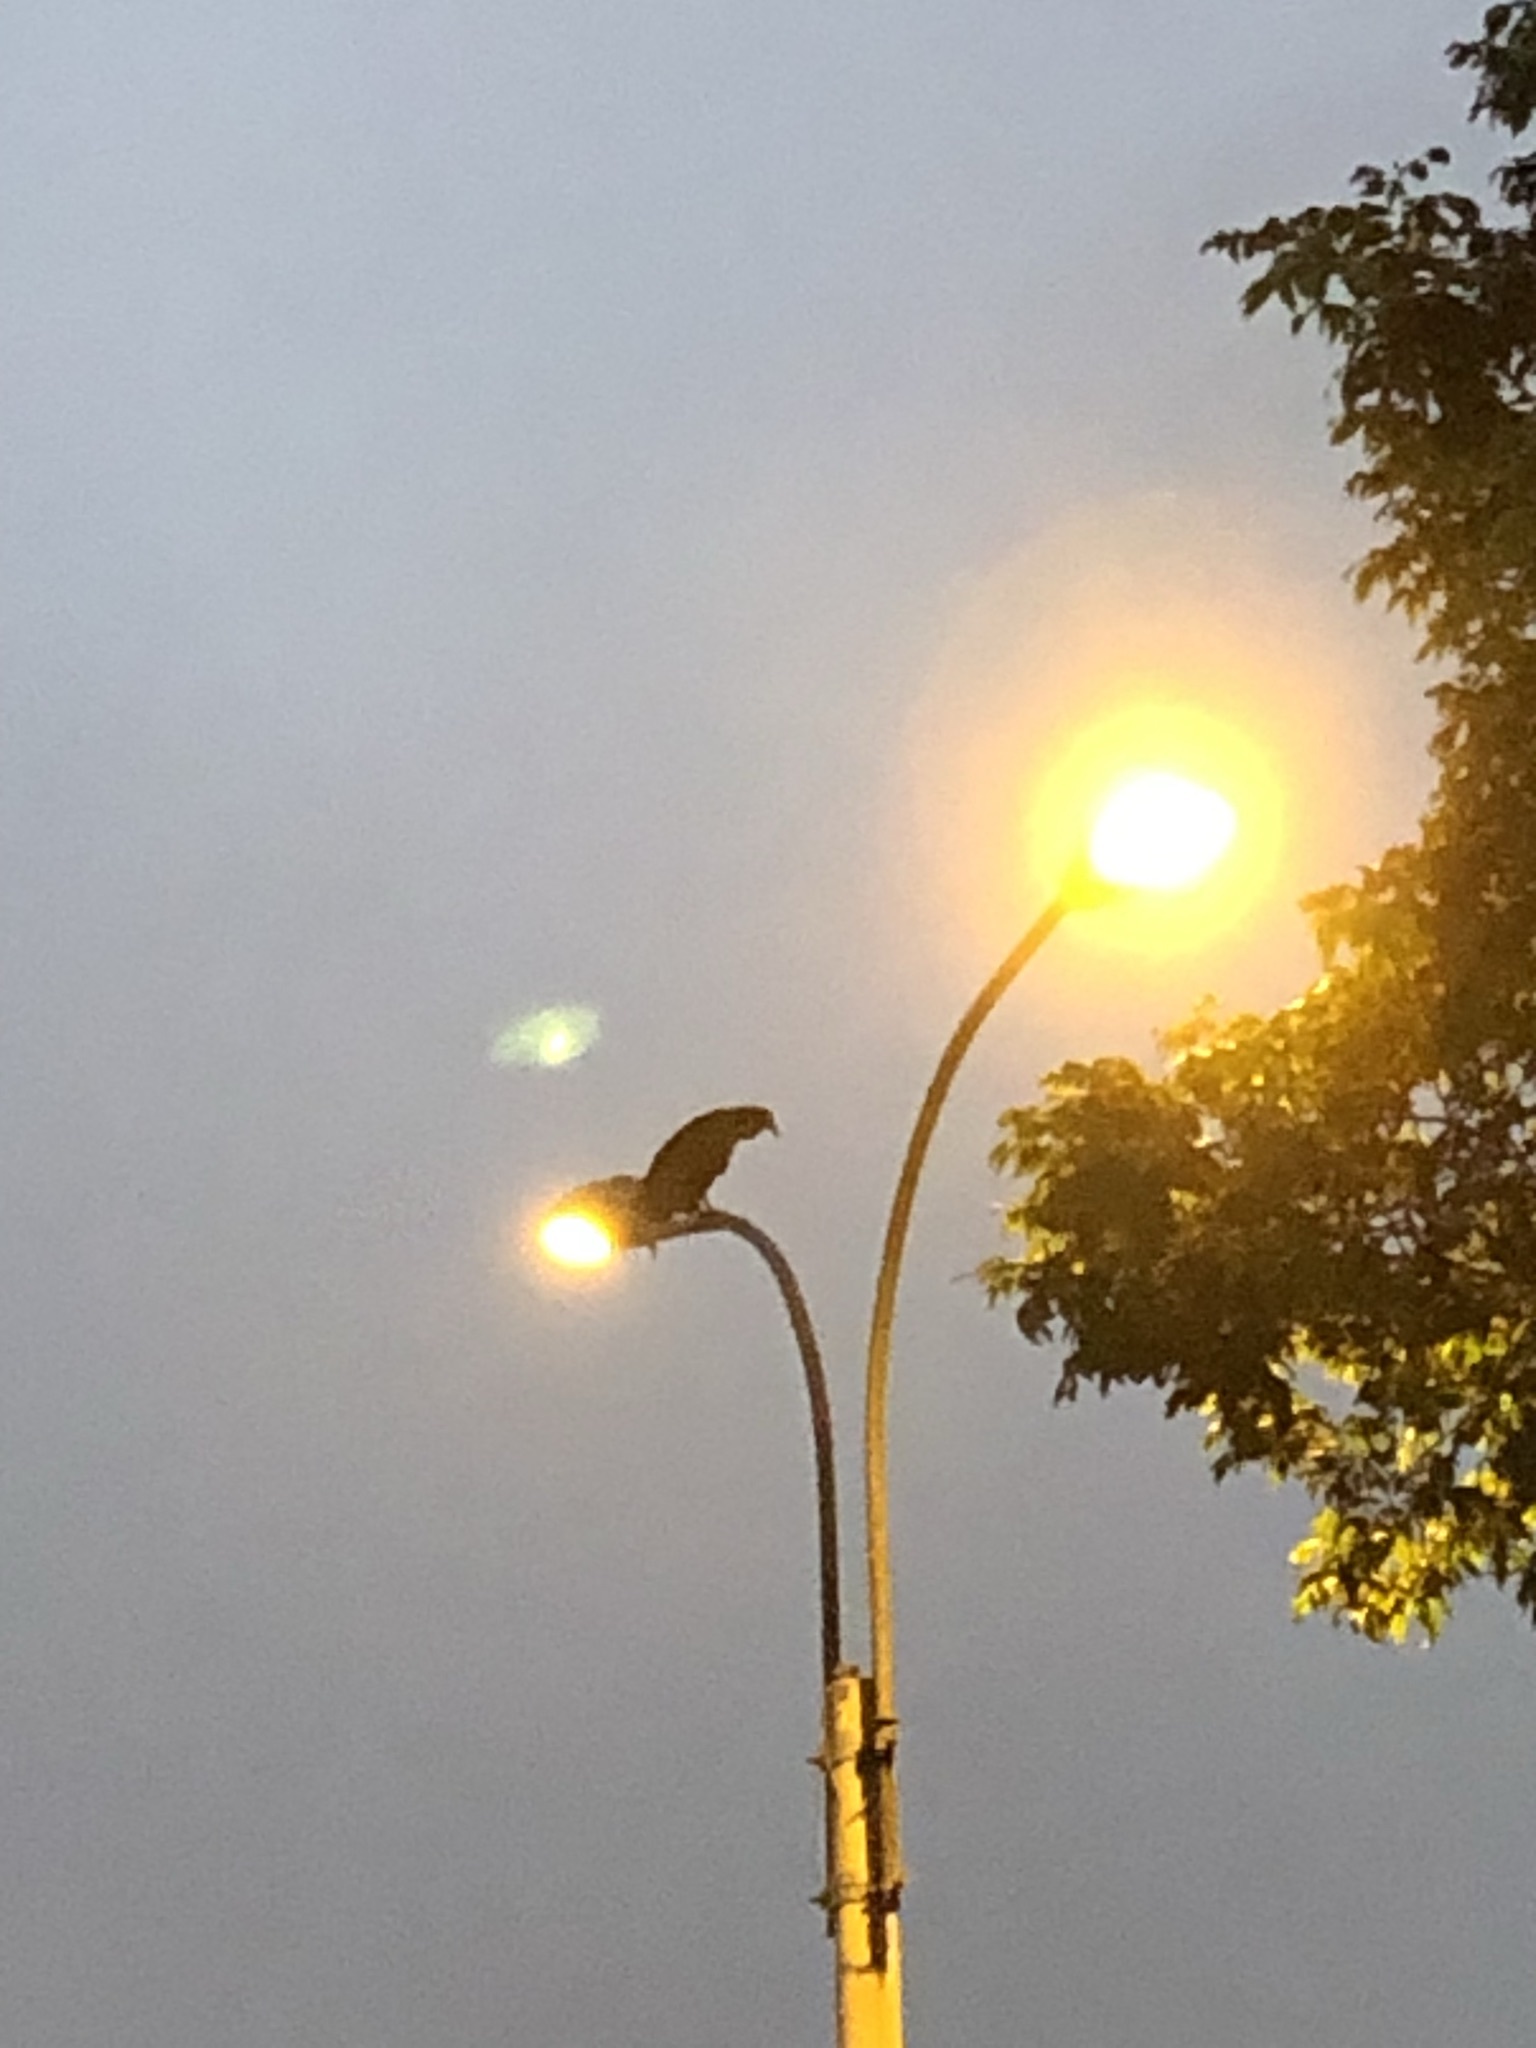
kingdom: Animalia
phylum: Chordata
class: Aves
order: Accipitriformes
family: Cathartidae
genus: Coragyps
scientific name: Coragyps atratus
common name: Black vulture
